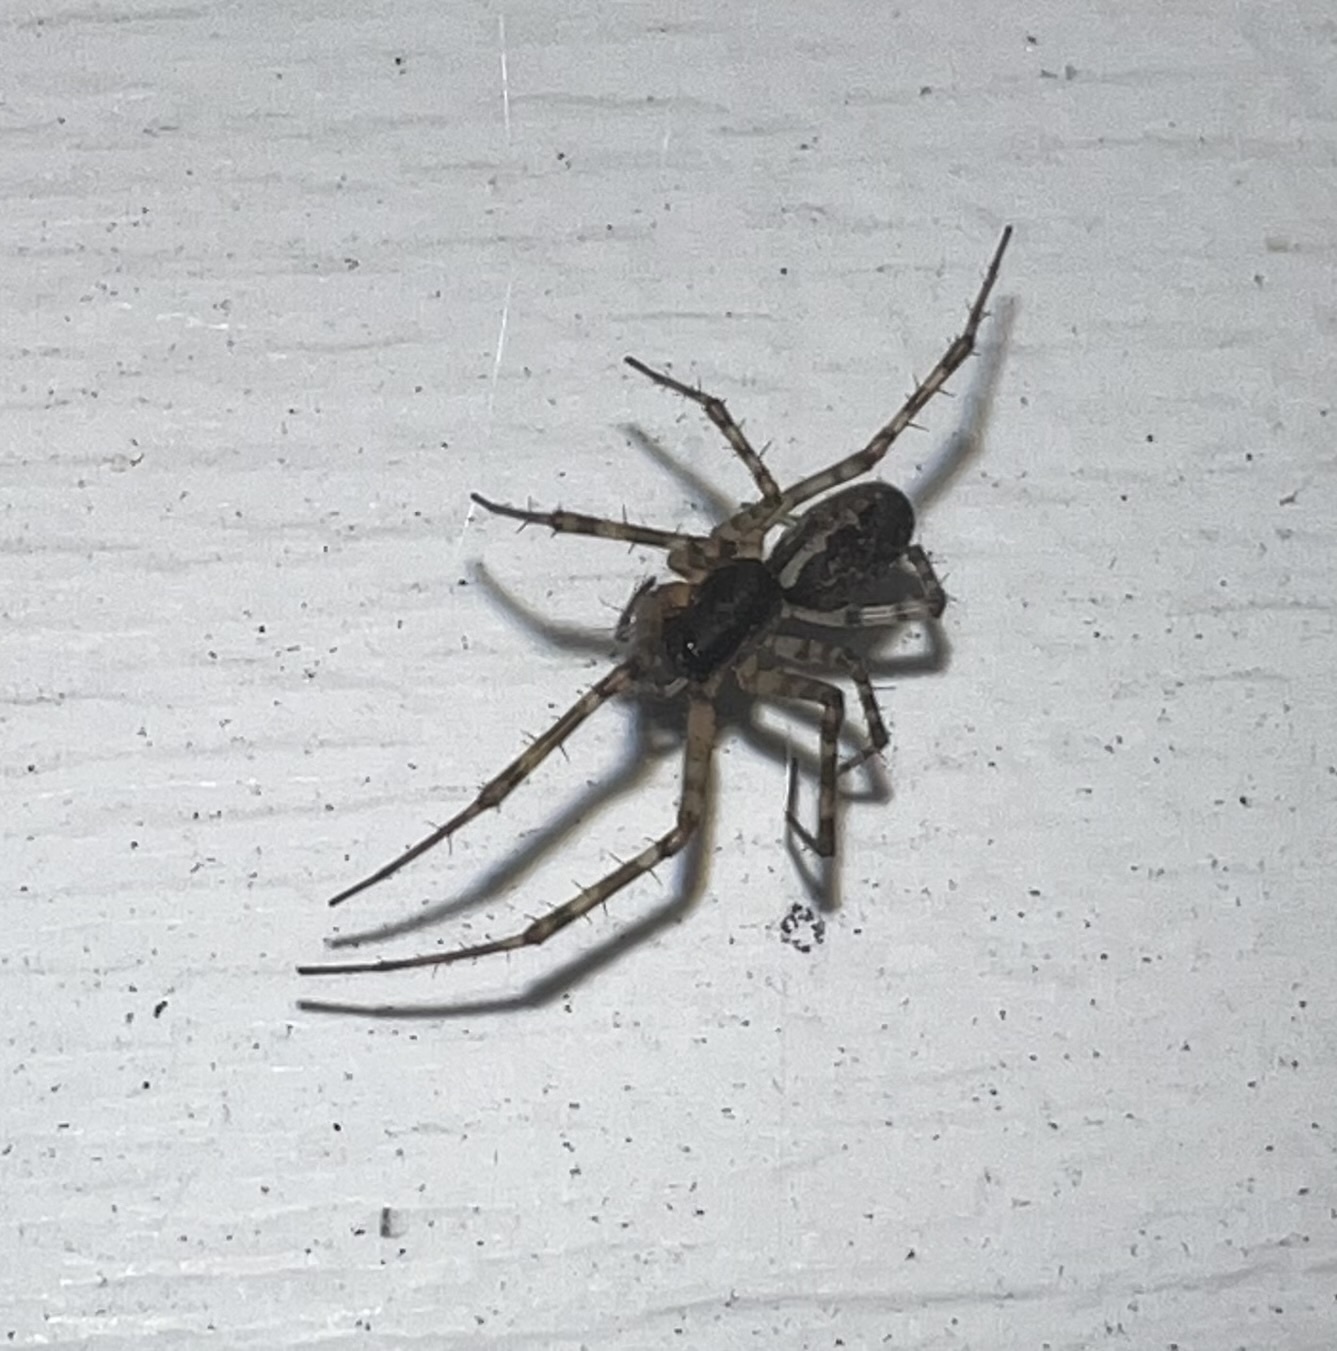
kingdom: Animalia
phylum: Arthropoda
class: Arachnida
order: Araneae
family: Linyphiidae
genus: Neriene
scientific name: Neriene montana
